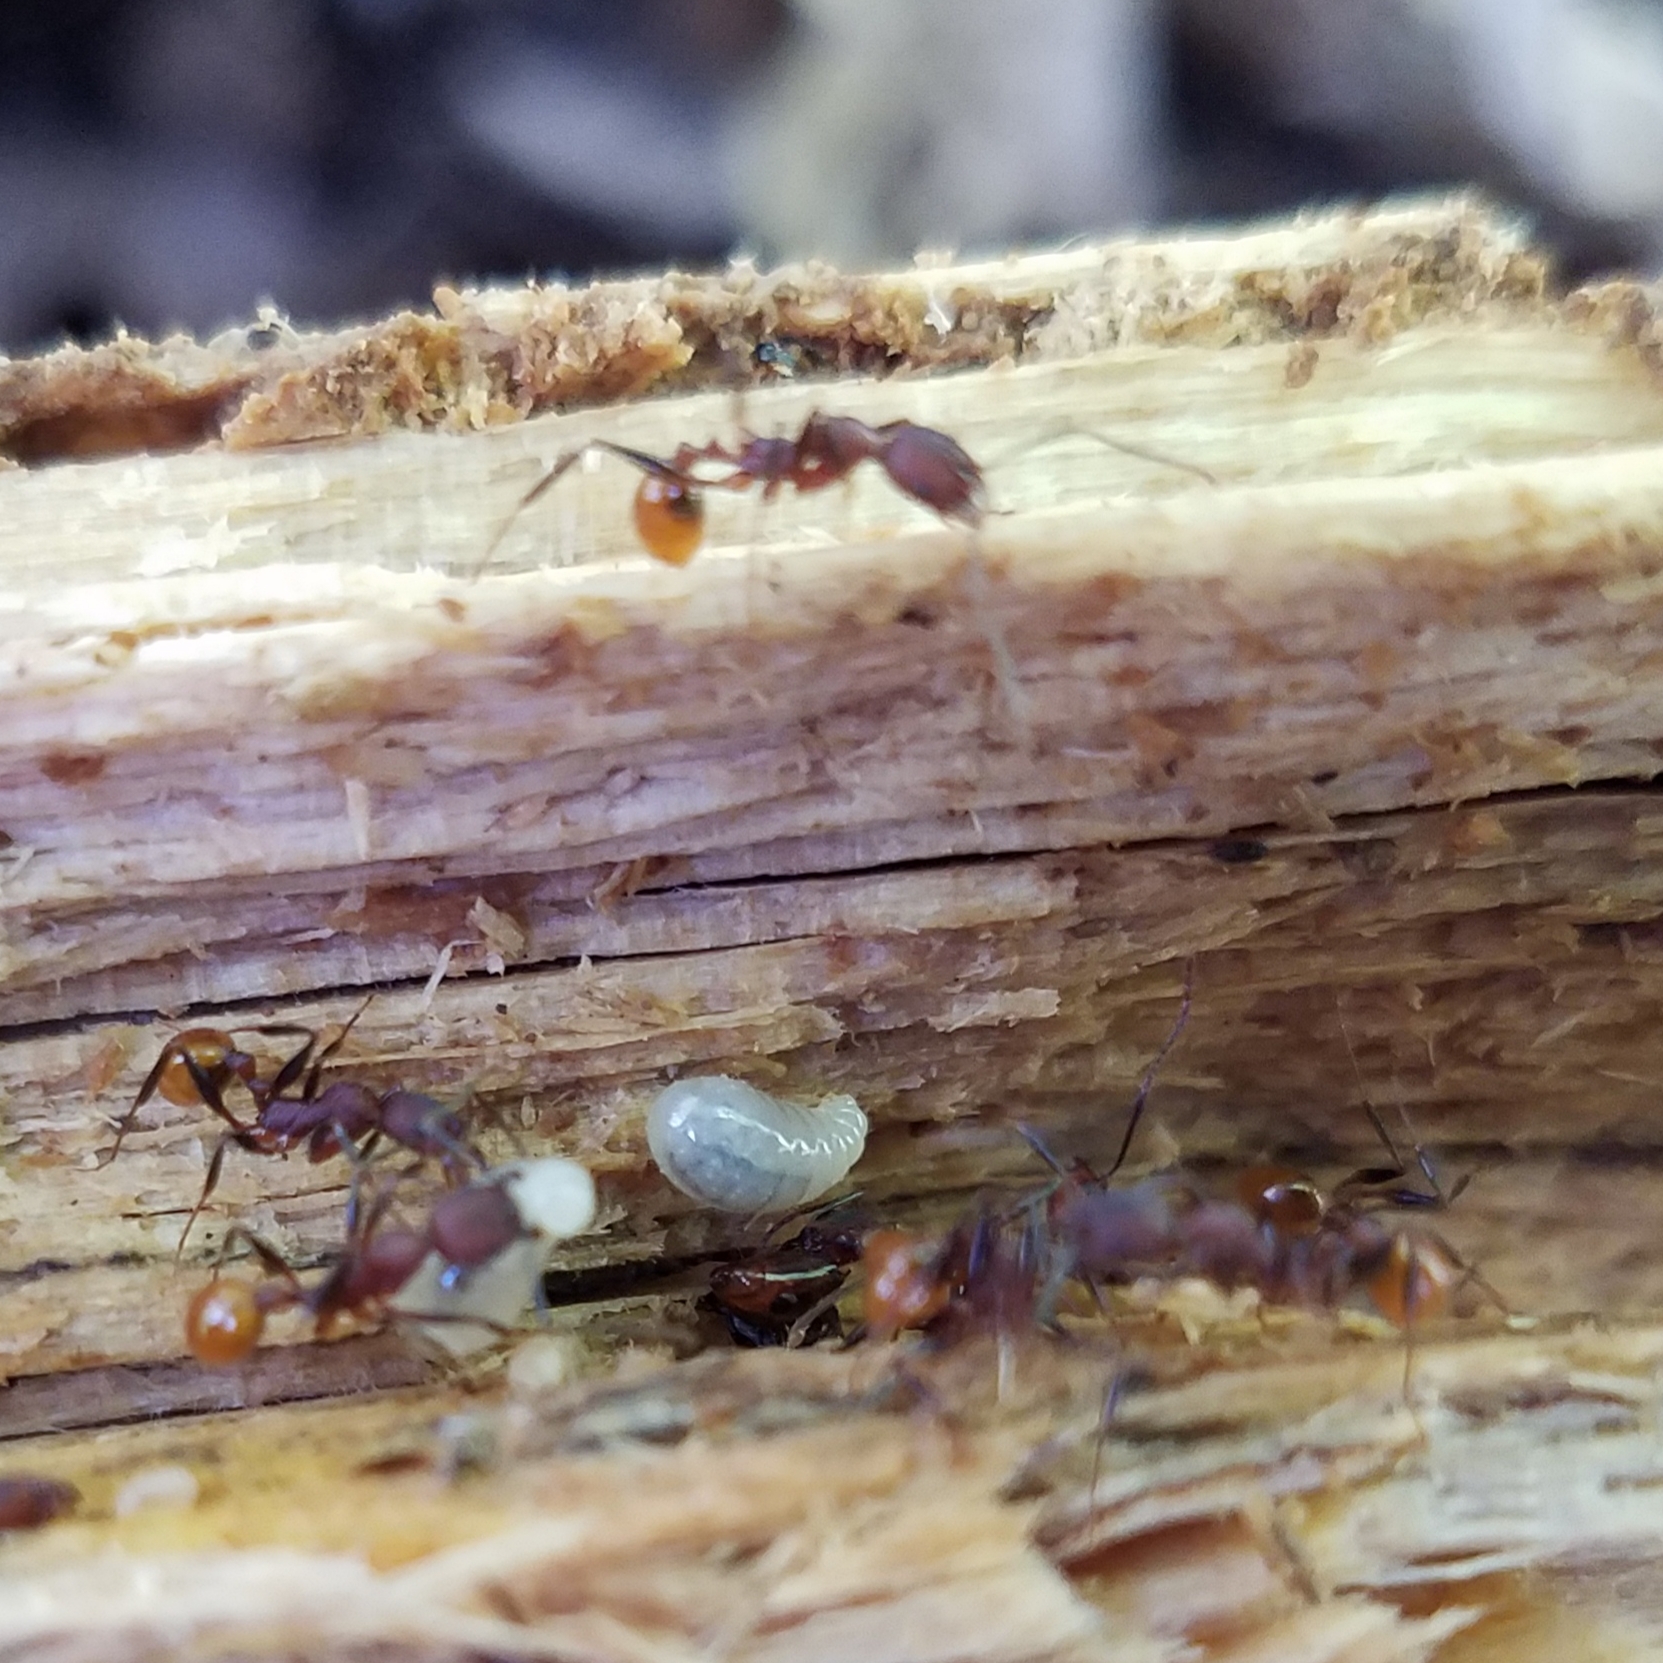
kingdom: Animalia
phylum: Arthropoda
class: Insecta
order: Hymenoptera
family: Formicidae
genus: Aphaenogaster
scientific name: Aphaenogaster lamellidens
